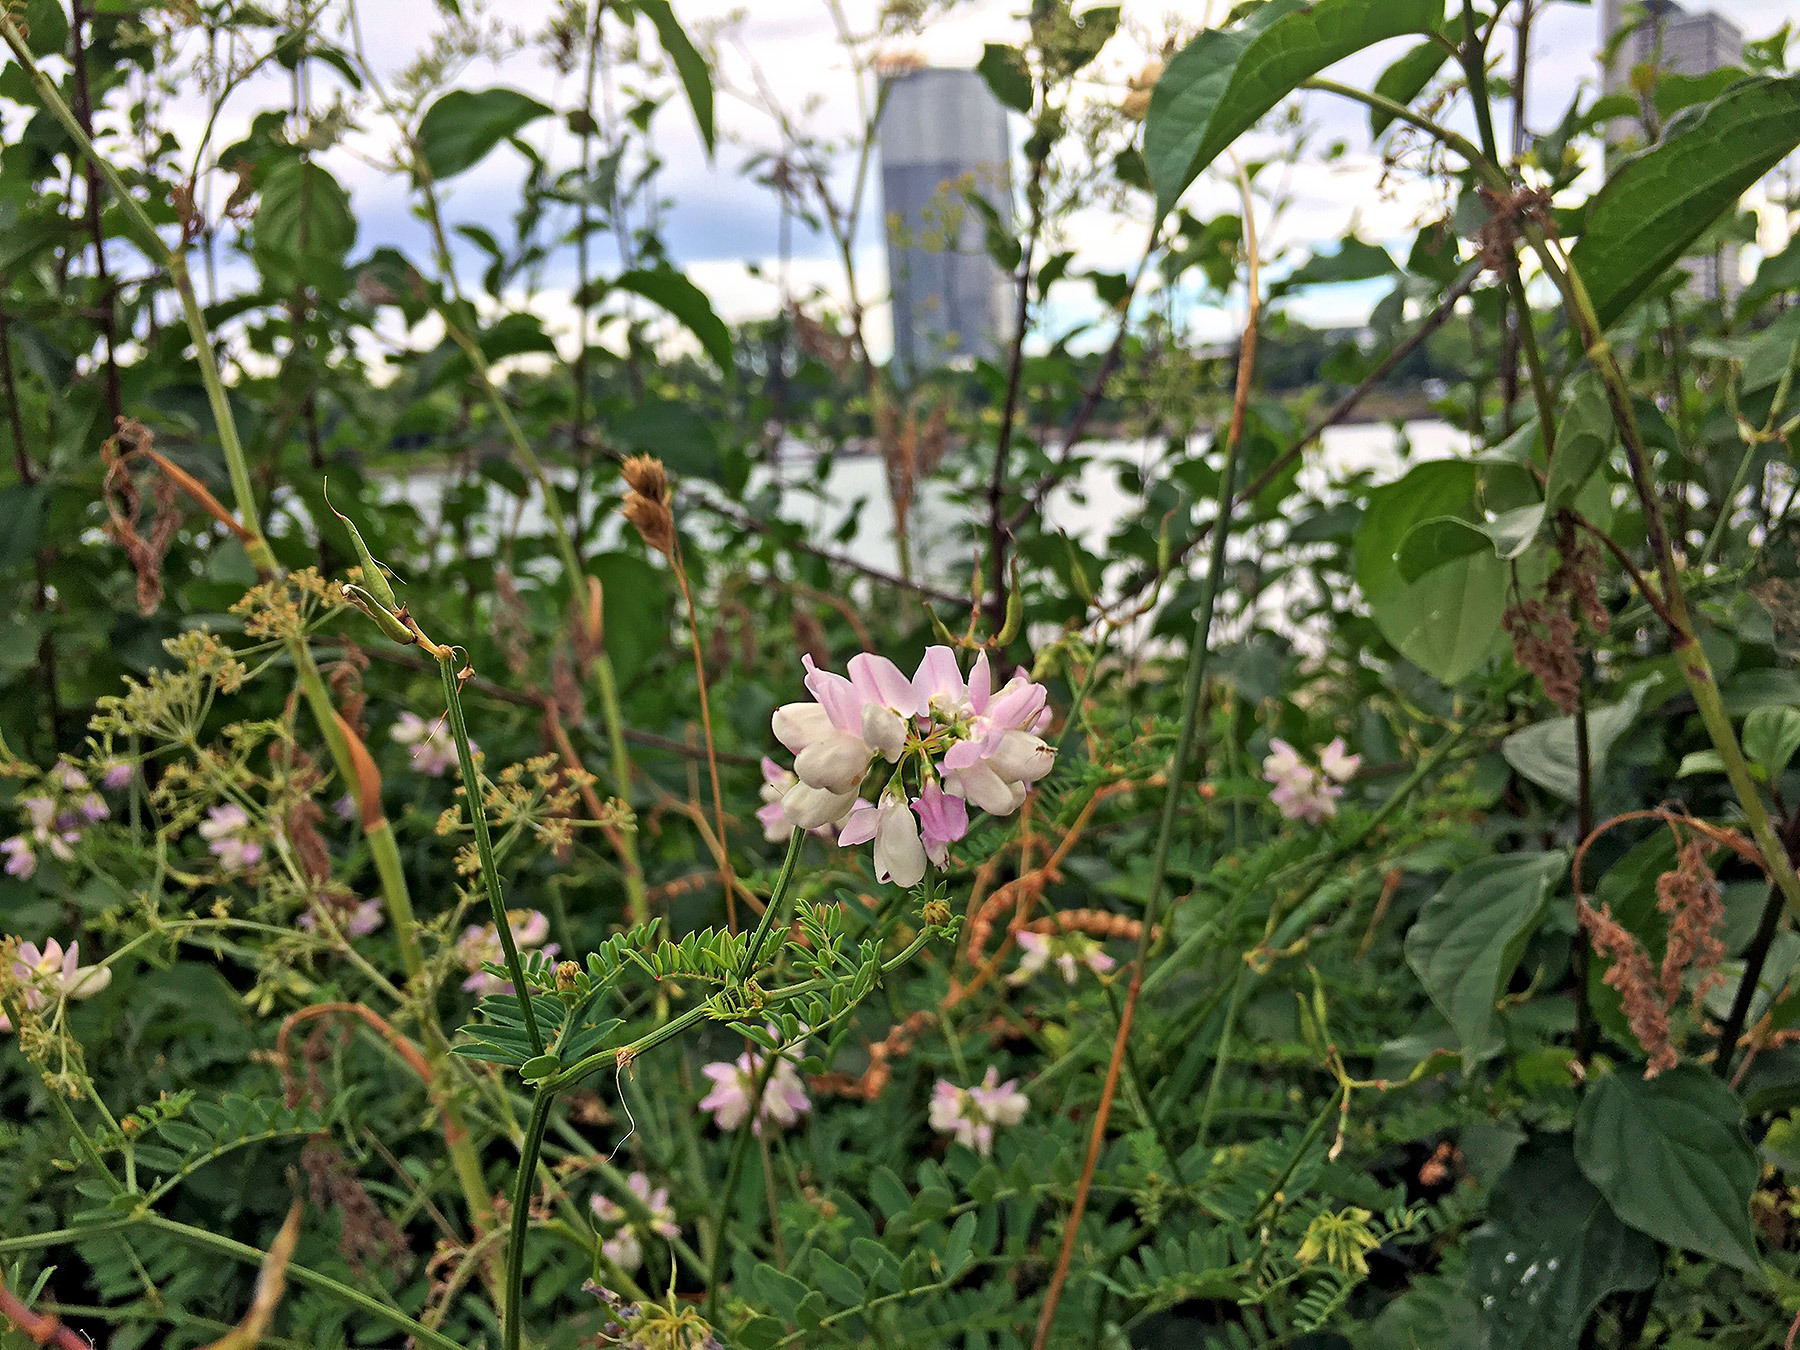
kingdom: Plantae
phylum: Tracheophyta
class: Magnoliopsida
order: Fabales
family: Fabaceae
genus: Coronilla
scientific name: Coronilla varia
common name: Crownvetch
